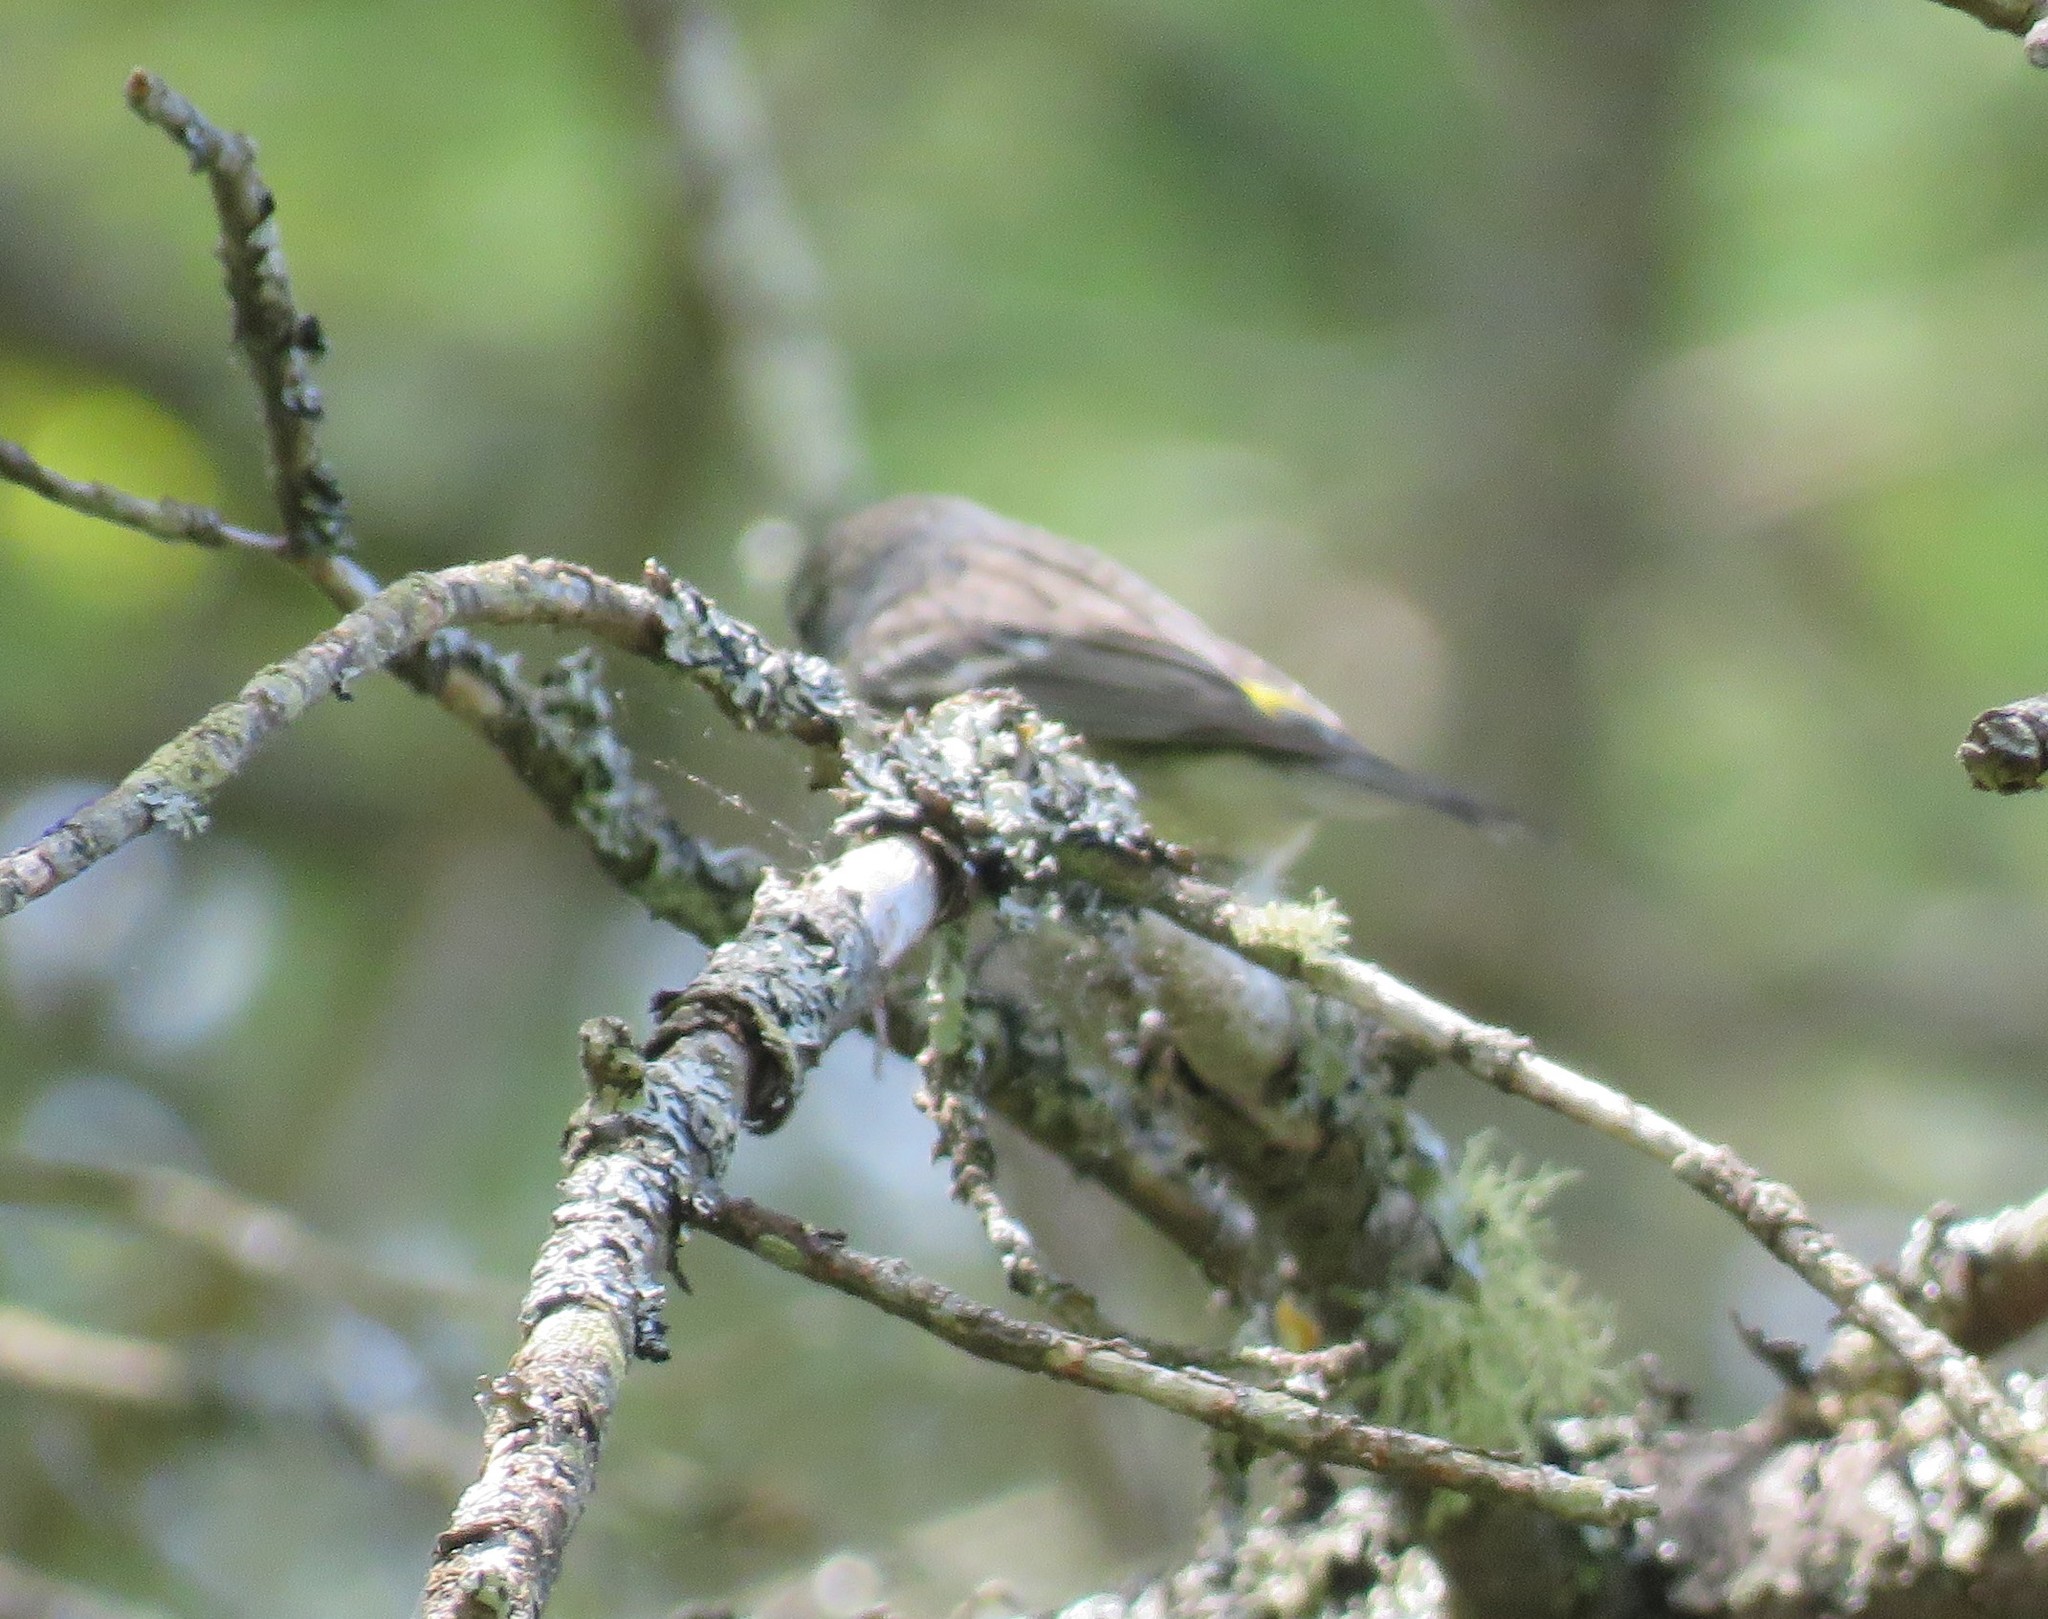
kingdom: Animalia
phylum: Chordata
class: Aves
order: Passeriformes
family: Parulidae
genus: Setophaga
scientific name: Setophaga coronata
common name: Myrtle warbler
